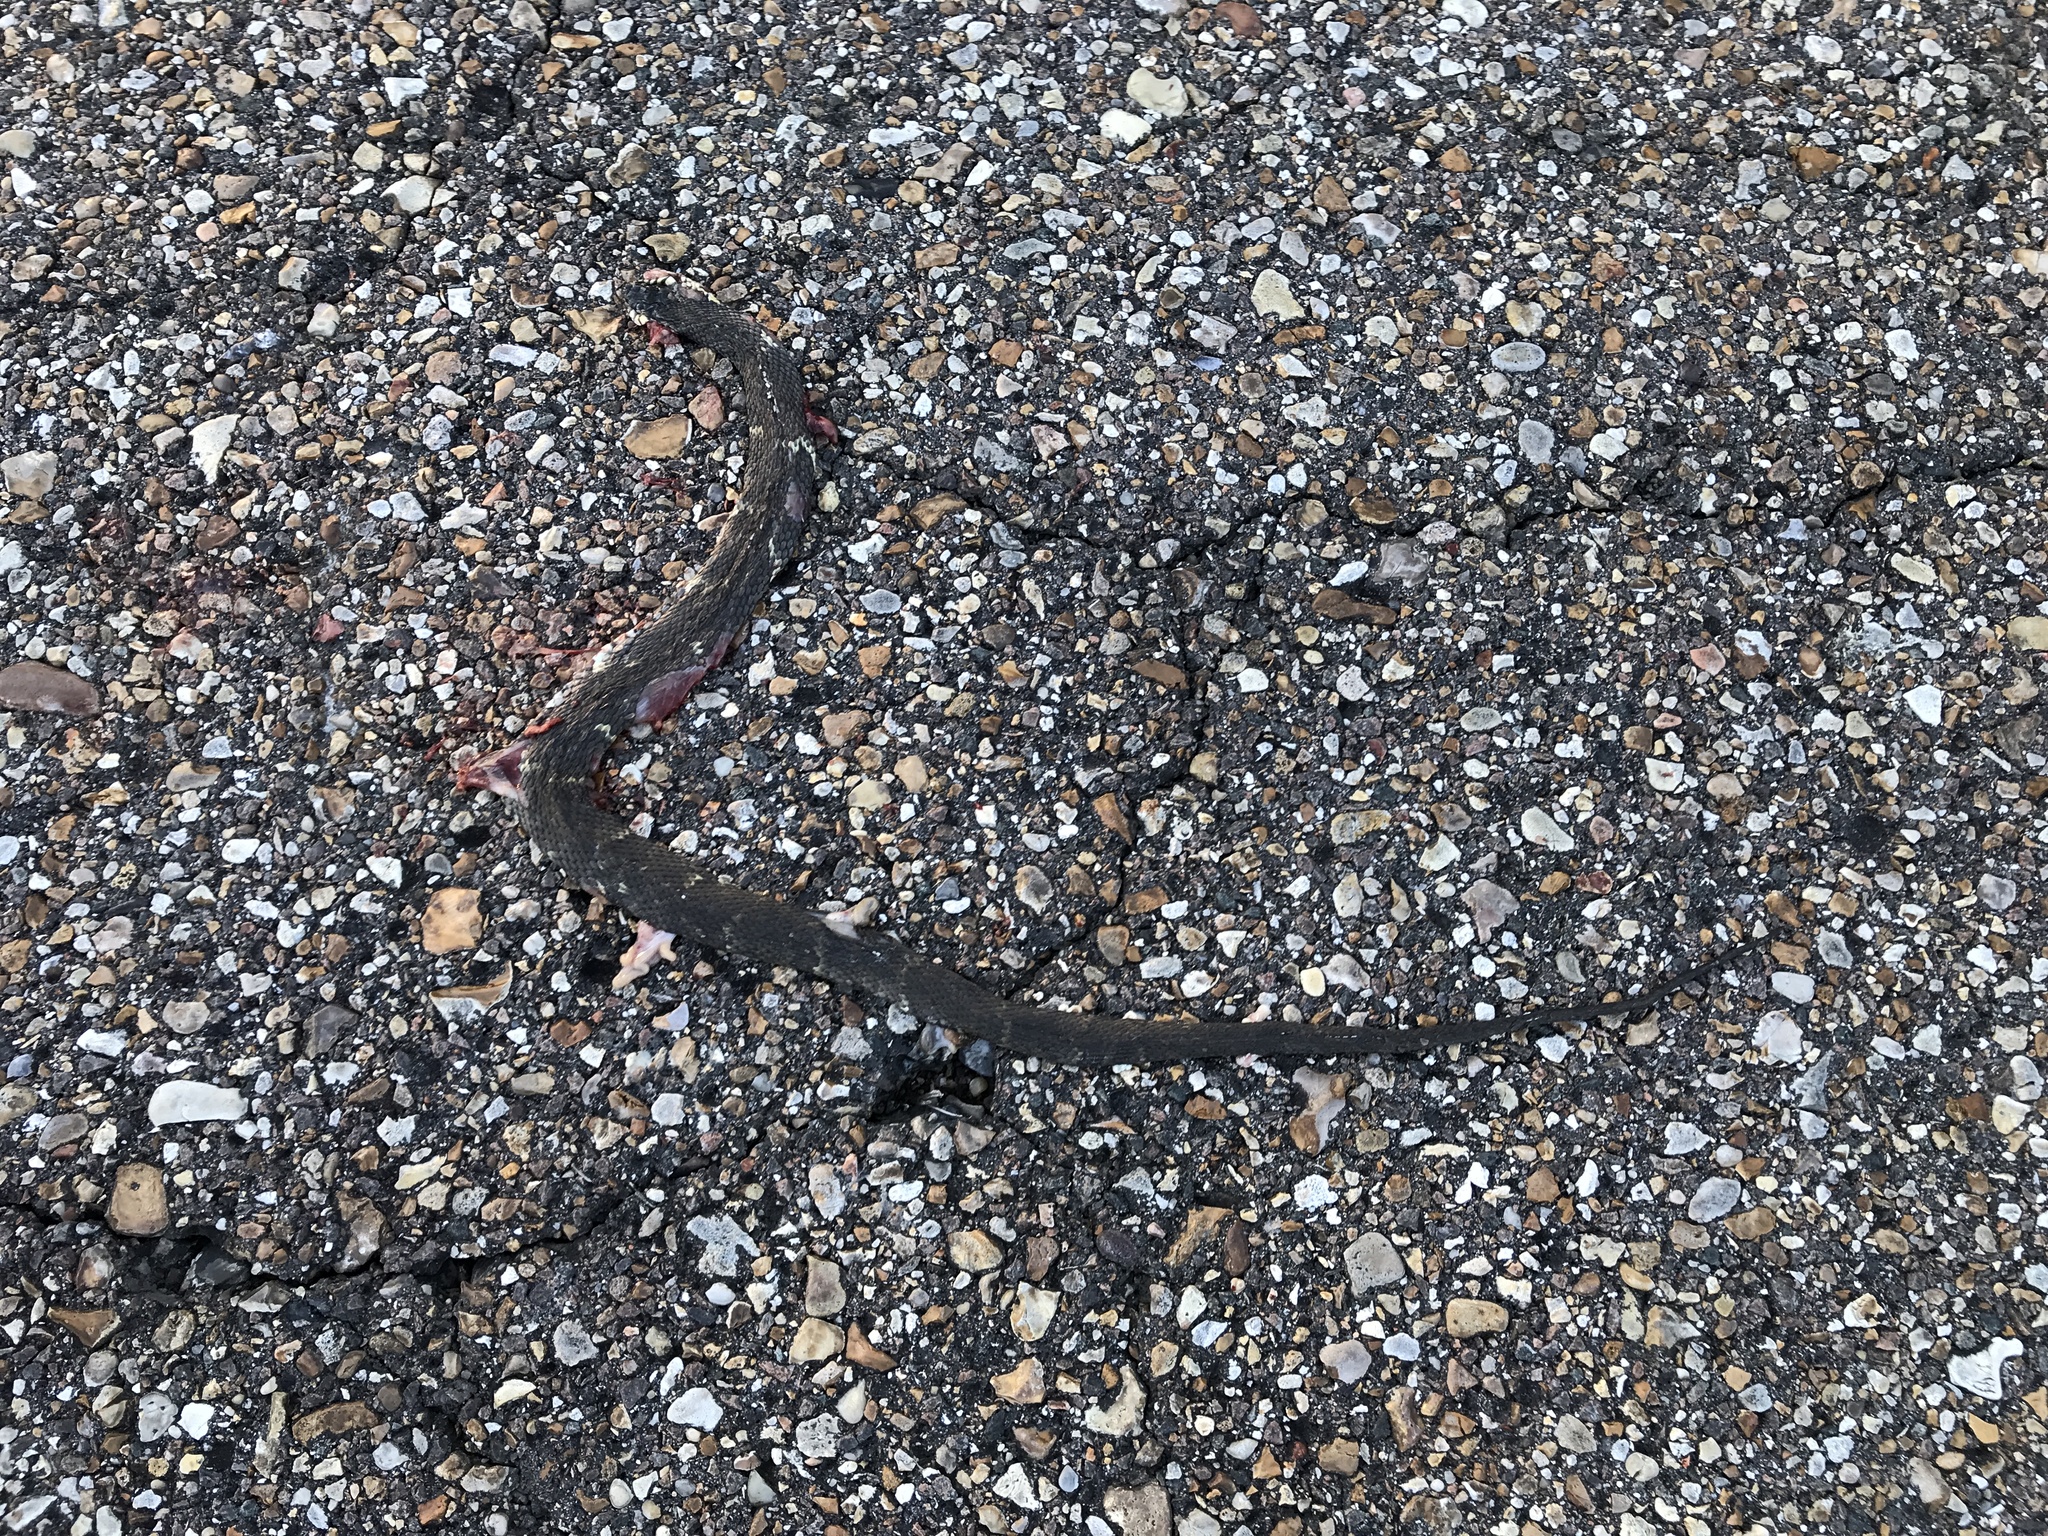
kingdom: Animalia
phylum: Chordata
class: Squamata
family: Colubridae
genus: Nerodia
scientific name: Nerodia fasciata
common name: Southern water snake
